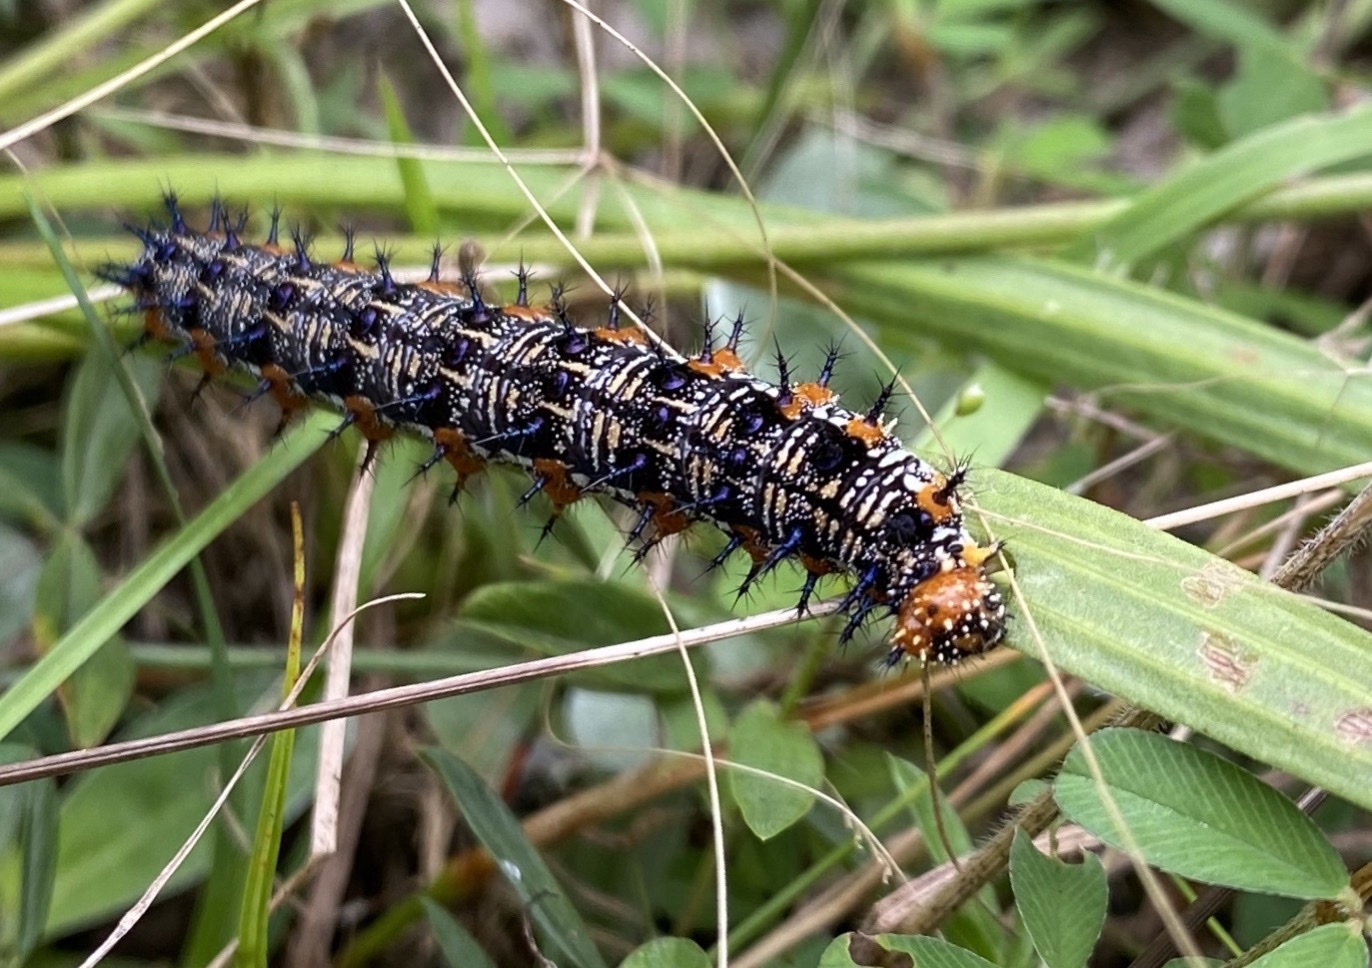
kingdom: Animalia
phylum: Arthropoda
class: Insecta
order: Lepidoptera
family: Nymphalidae
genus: Junonia
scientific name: Junonia coenia
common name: Common buckeye
